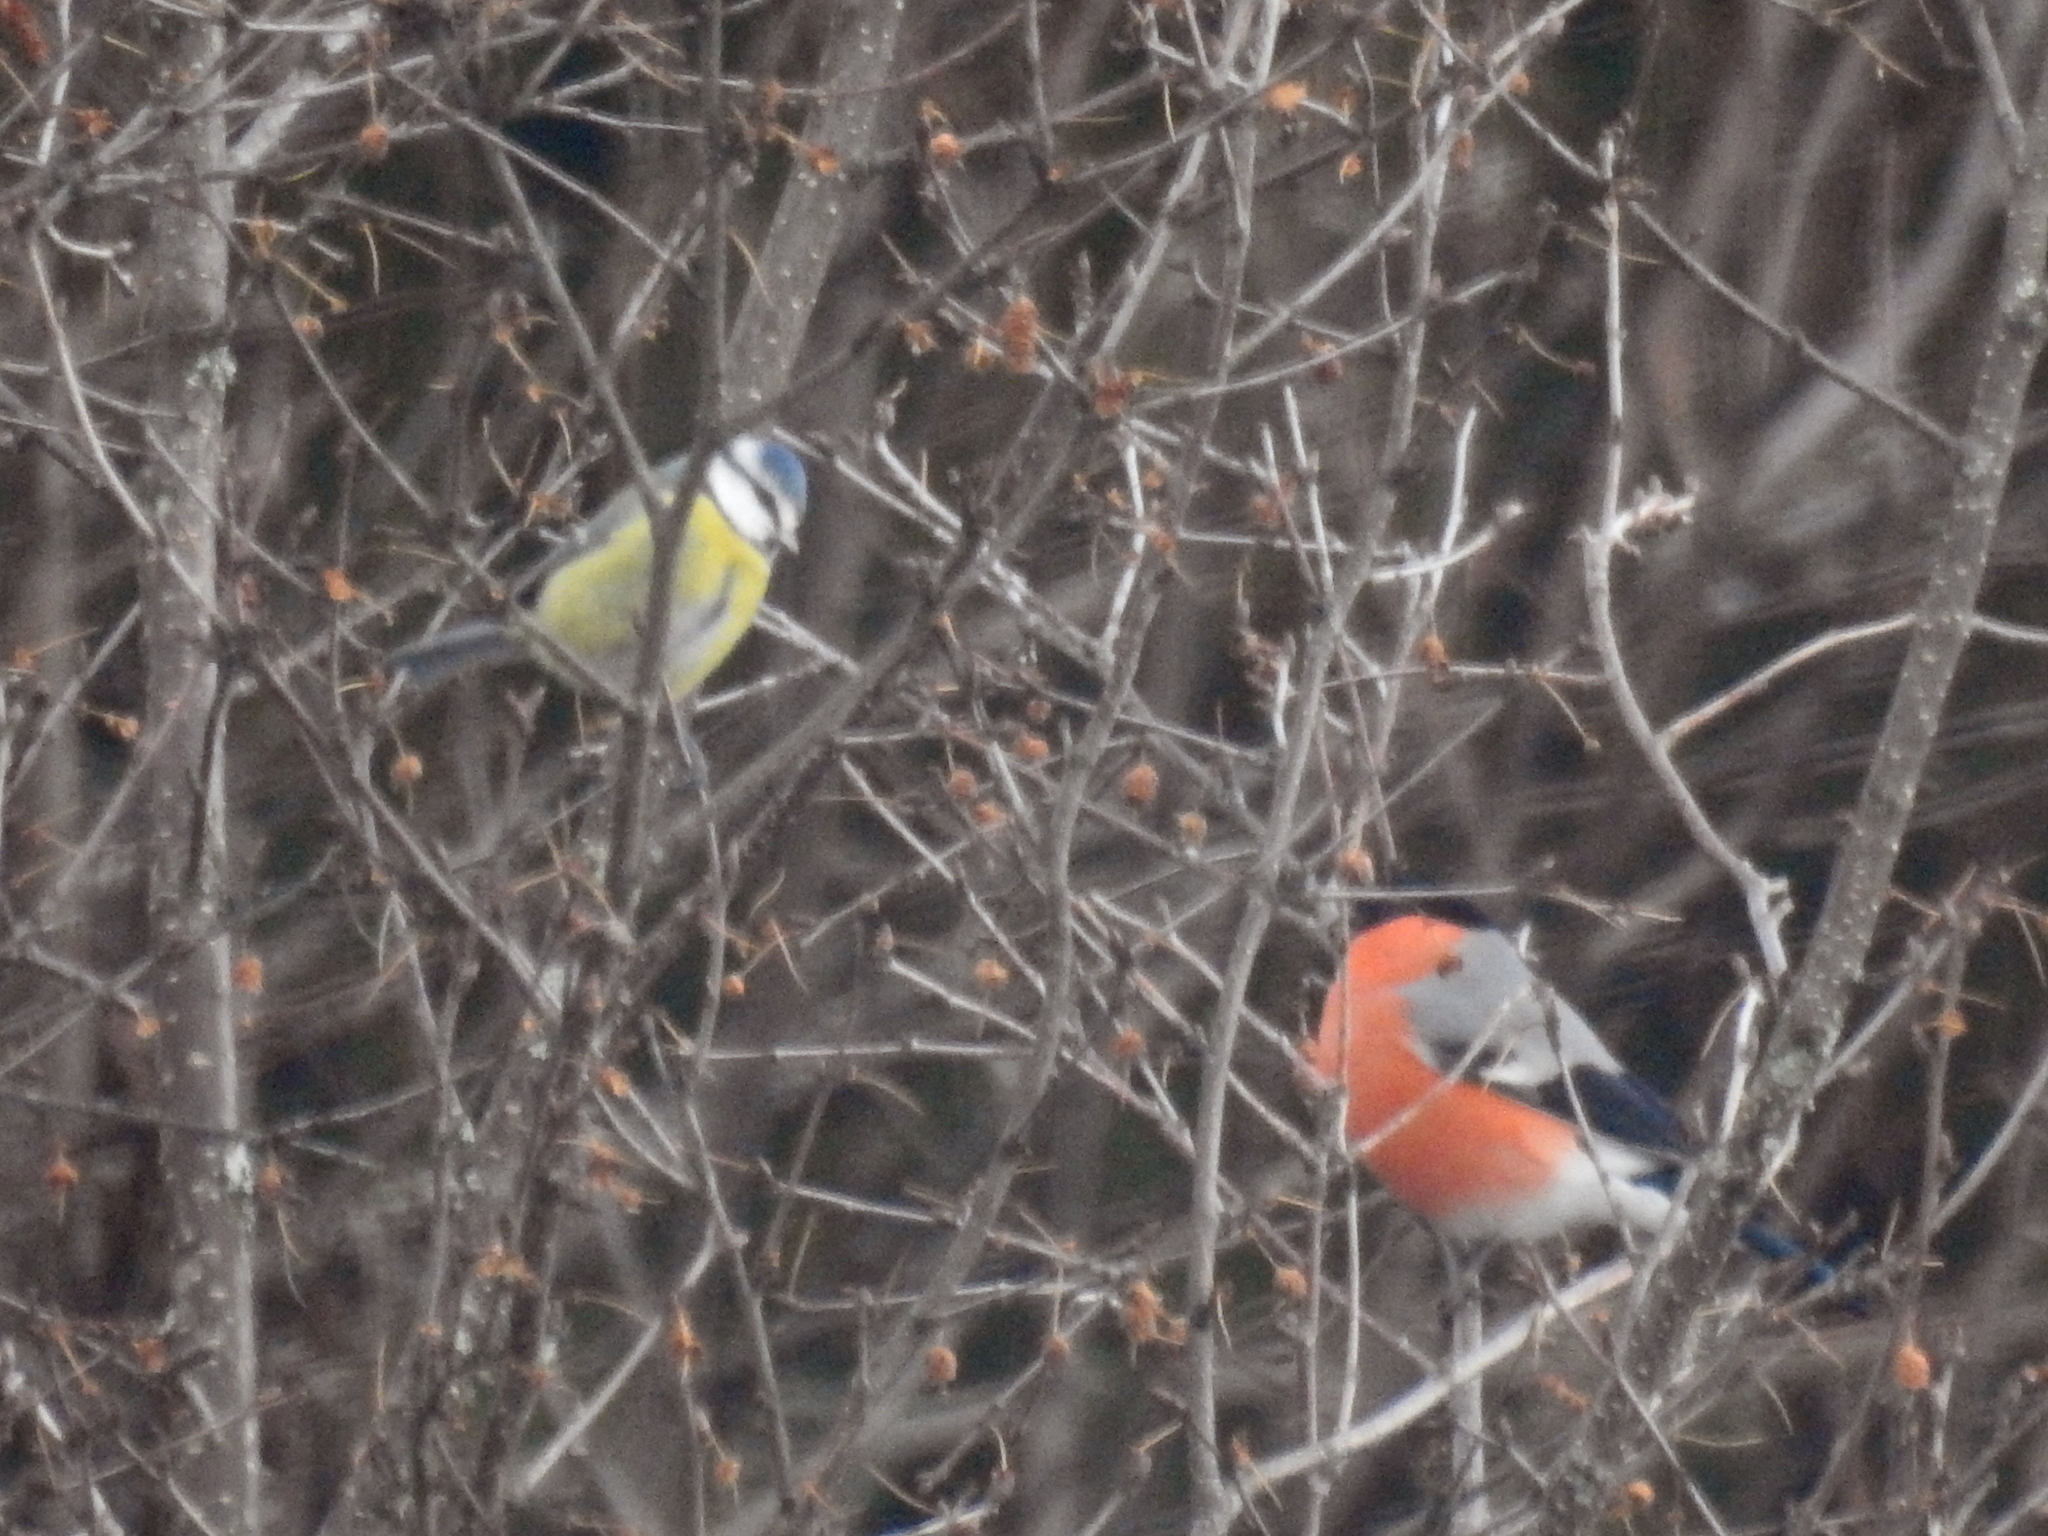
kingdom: Animalia
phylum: Chordata
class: Aves
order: Passeriformes
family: Paridae
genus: Cyanistes
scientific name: Cyanistes caeruleus
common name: Eurasian blue tit
